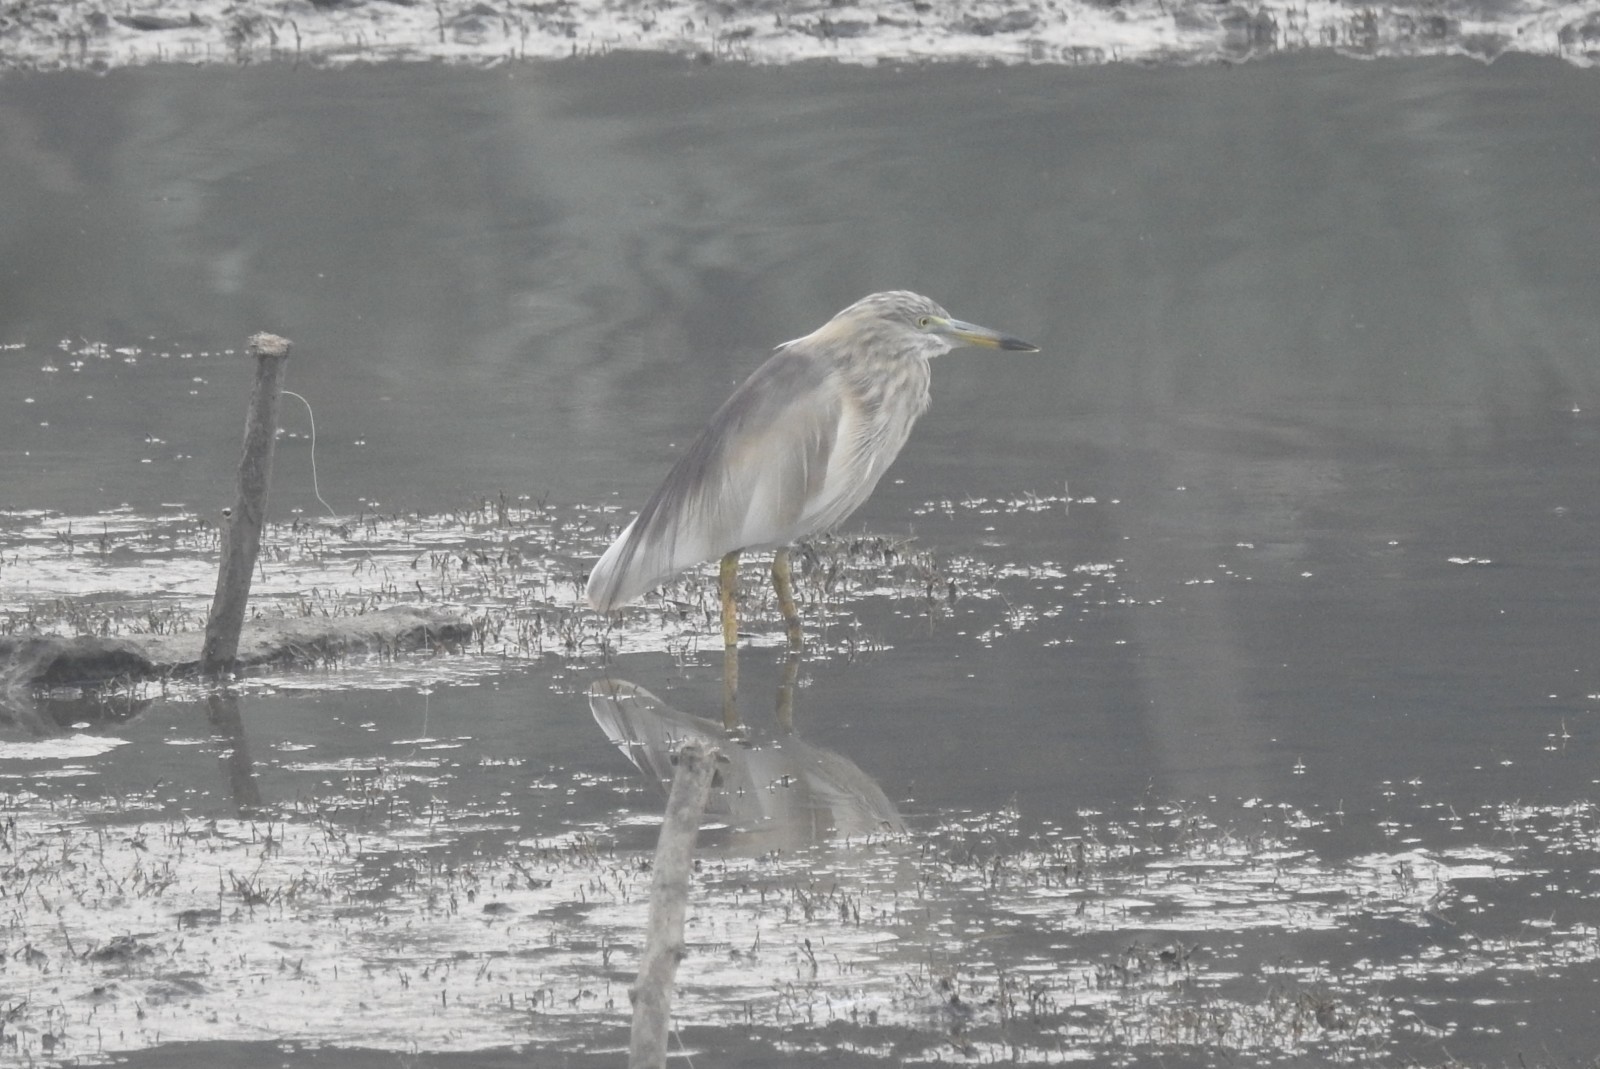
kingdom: Animalia
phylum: Chordata
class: Aves
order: Pelecaniformes
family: Ardeidae
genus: Ardeola
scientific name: Ardeola grayii
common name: Indian pond heron
